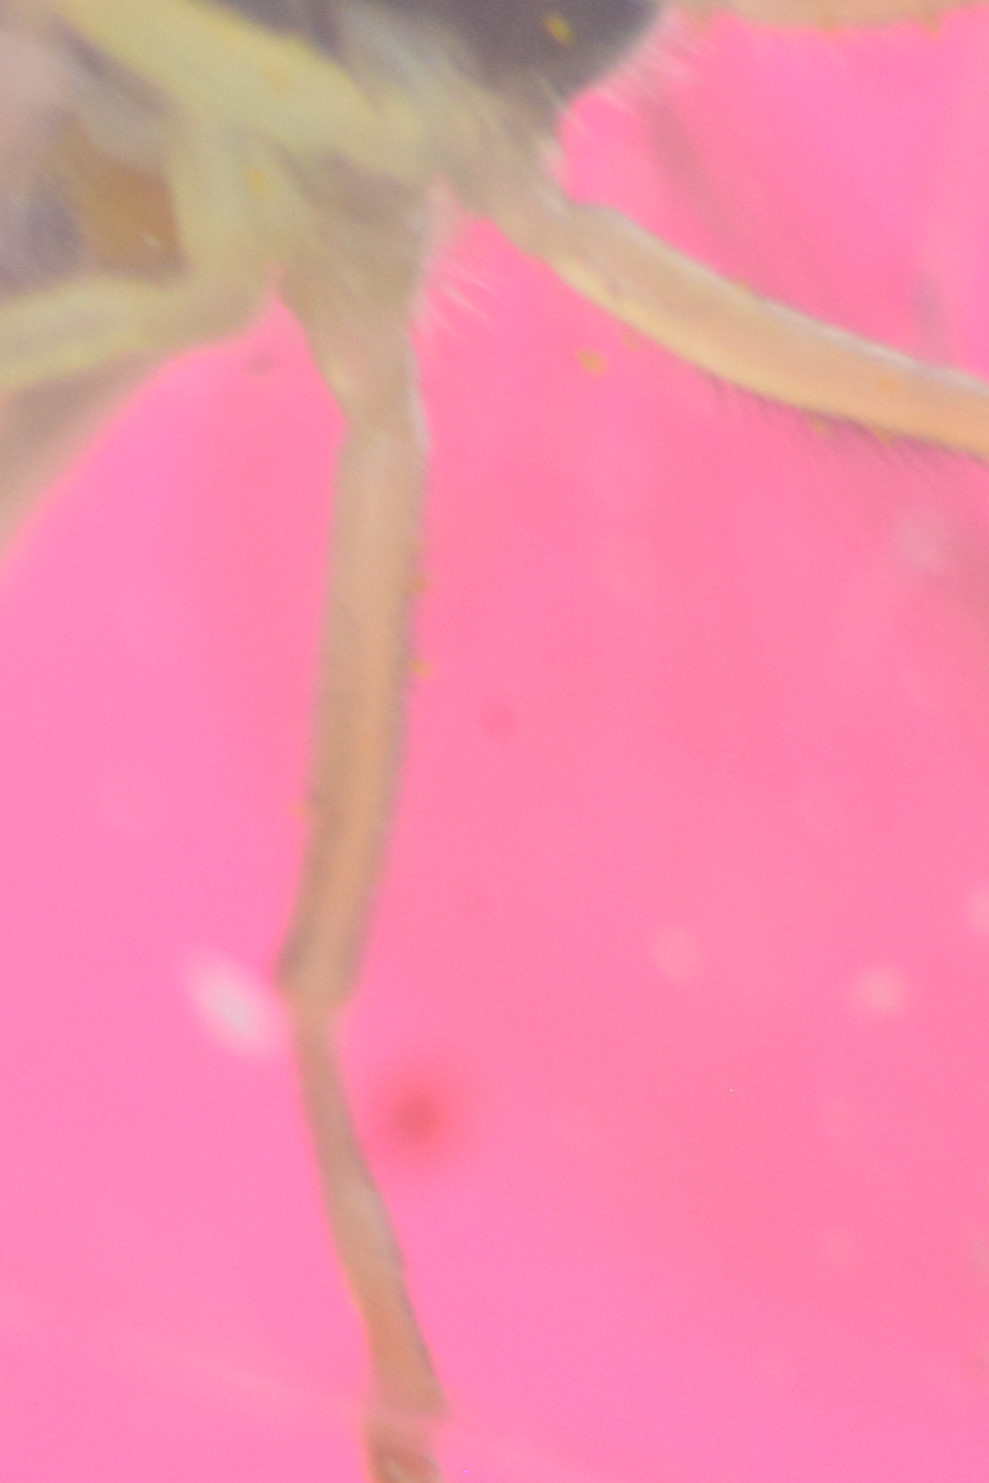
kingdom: Animalia
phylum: Arthropoda
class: Insecta
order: Diptera
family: Syrphidae
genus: Sphaerophoria
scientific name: Sphaerophoria
